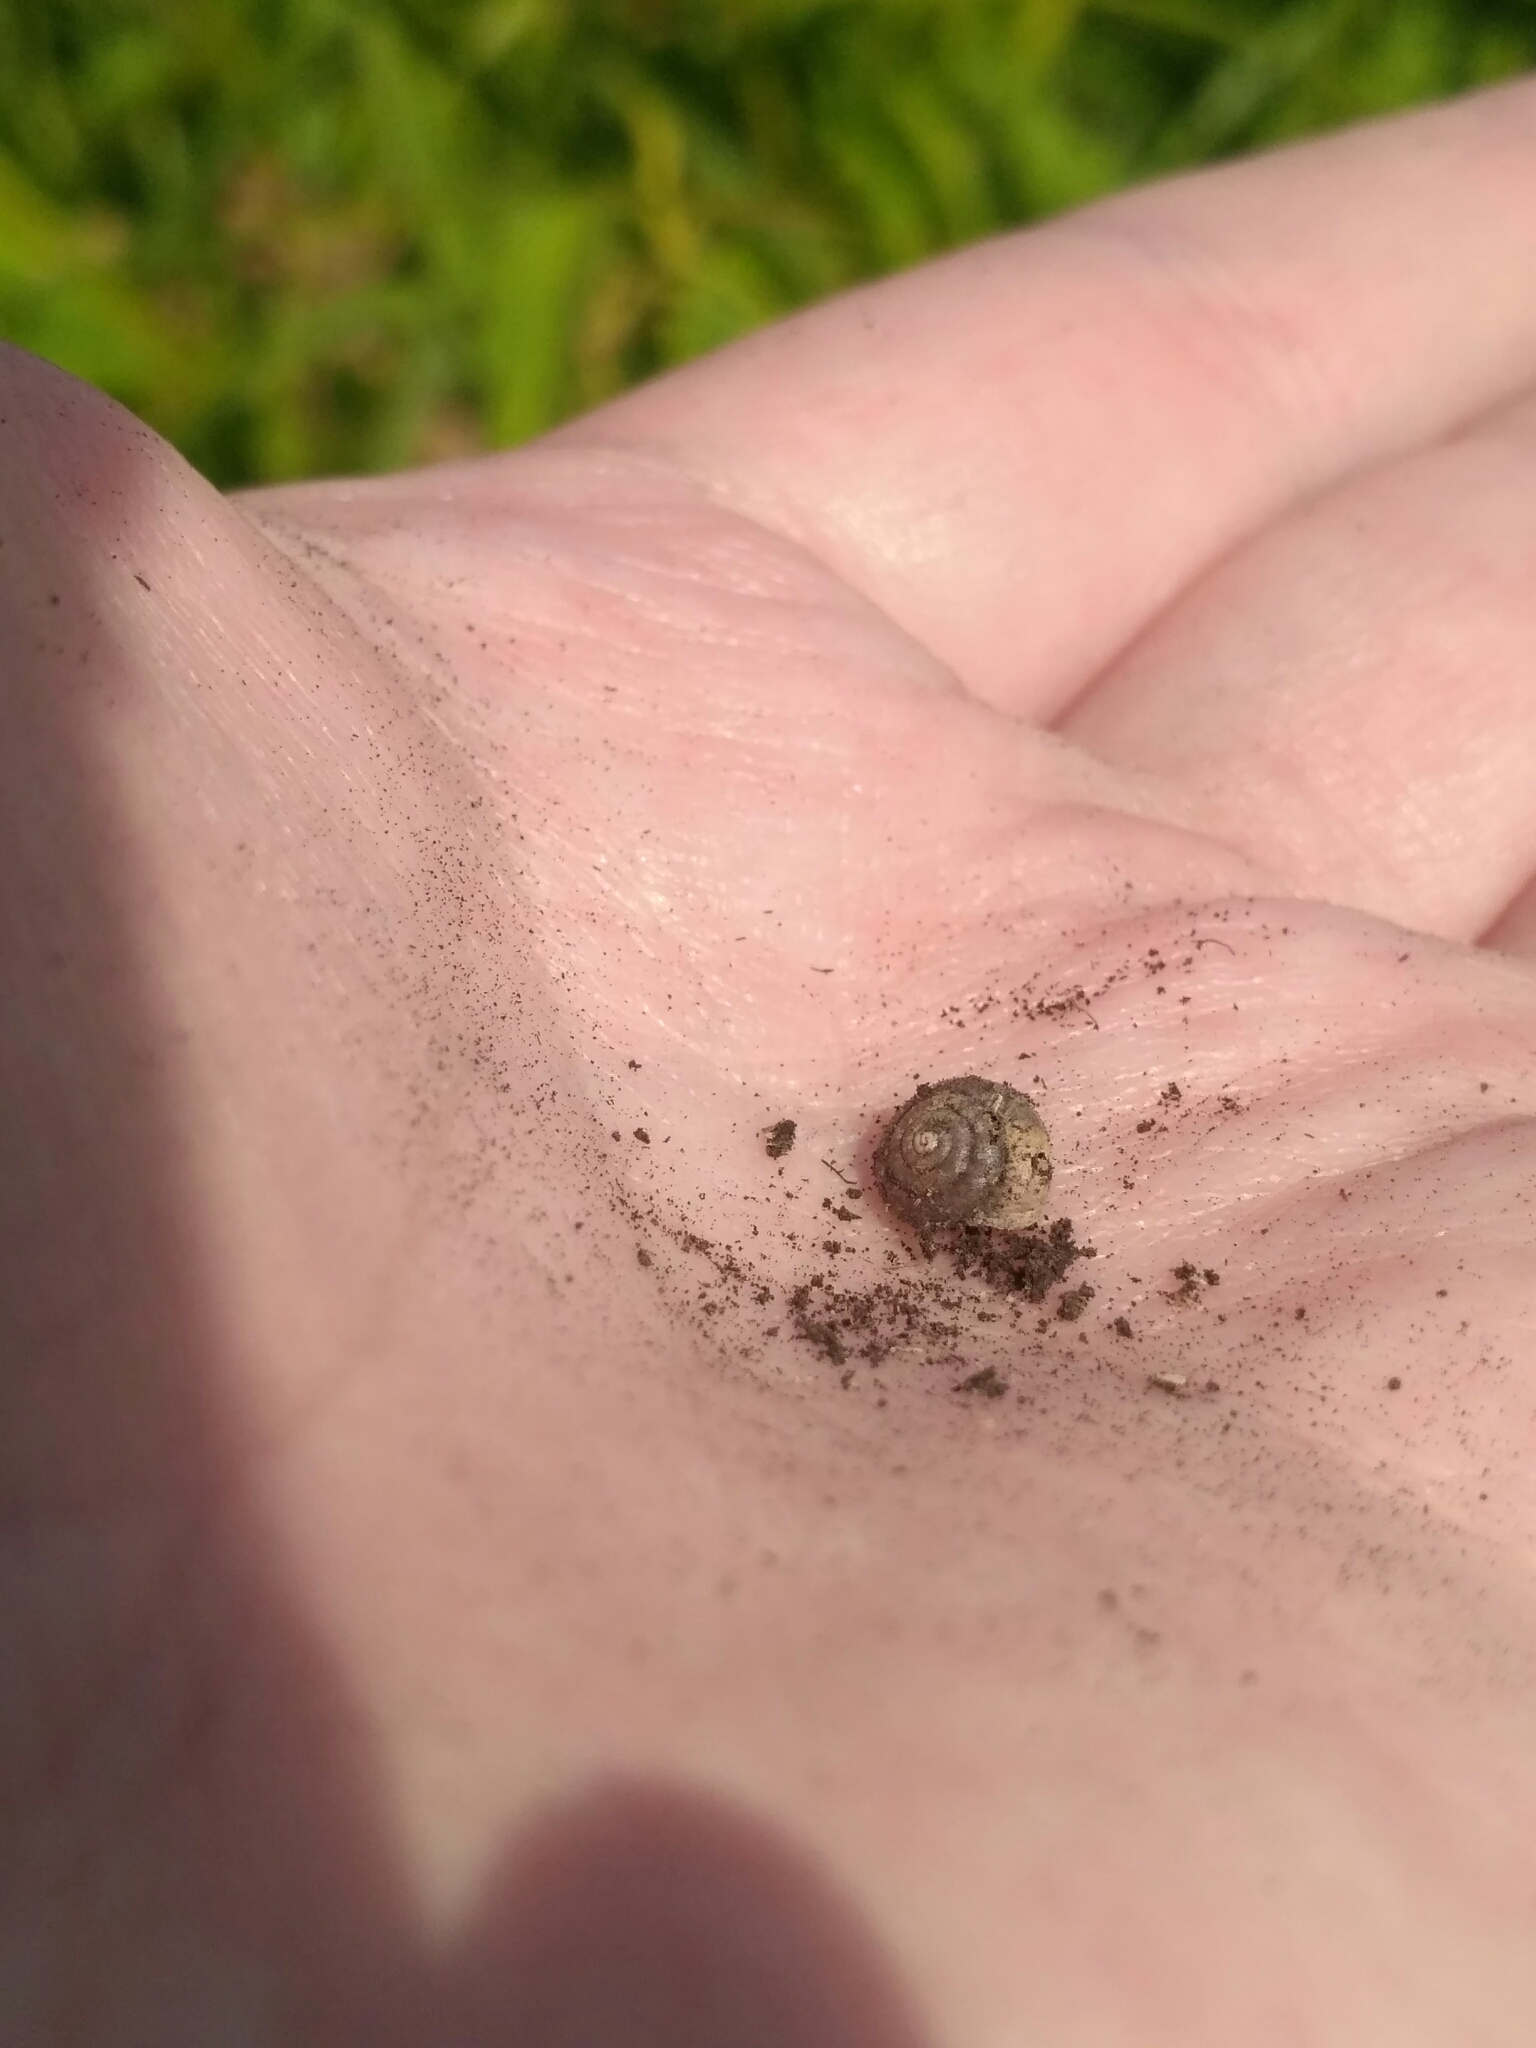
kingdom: Animalia
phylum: Mollusca
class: Gastropoda
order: Stylommatophora
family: Hygromiidae
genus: Pseudotrichia
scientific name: Pseudotrichia rubiginosa
